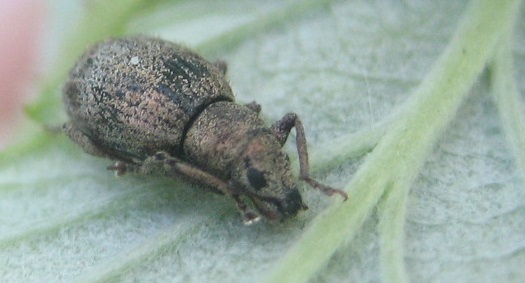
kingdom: Animalia
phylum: Arthropoda
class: Insecta
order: Coleoptera
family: Curculionidae
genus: Sciaphilus
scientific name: Sciaphilus asperatus
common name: Weevil
